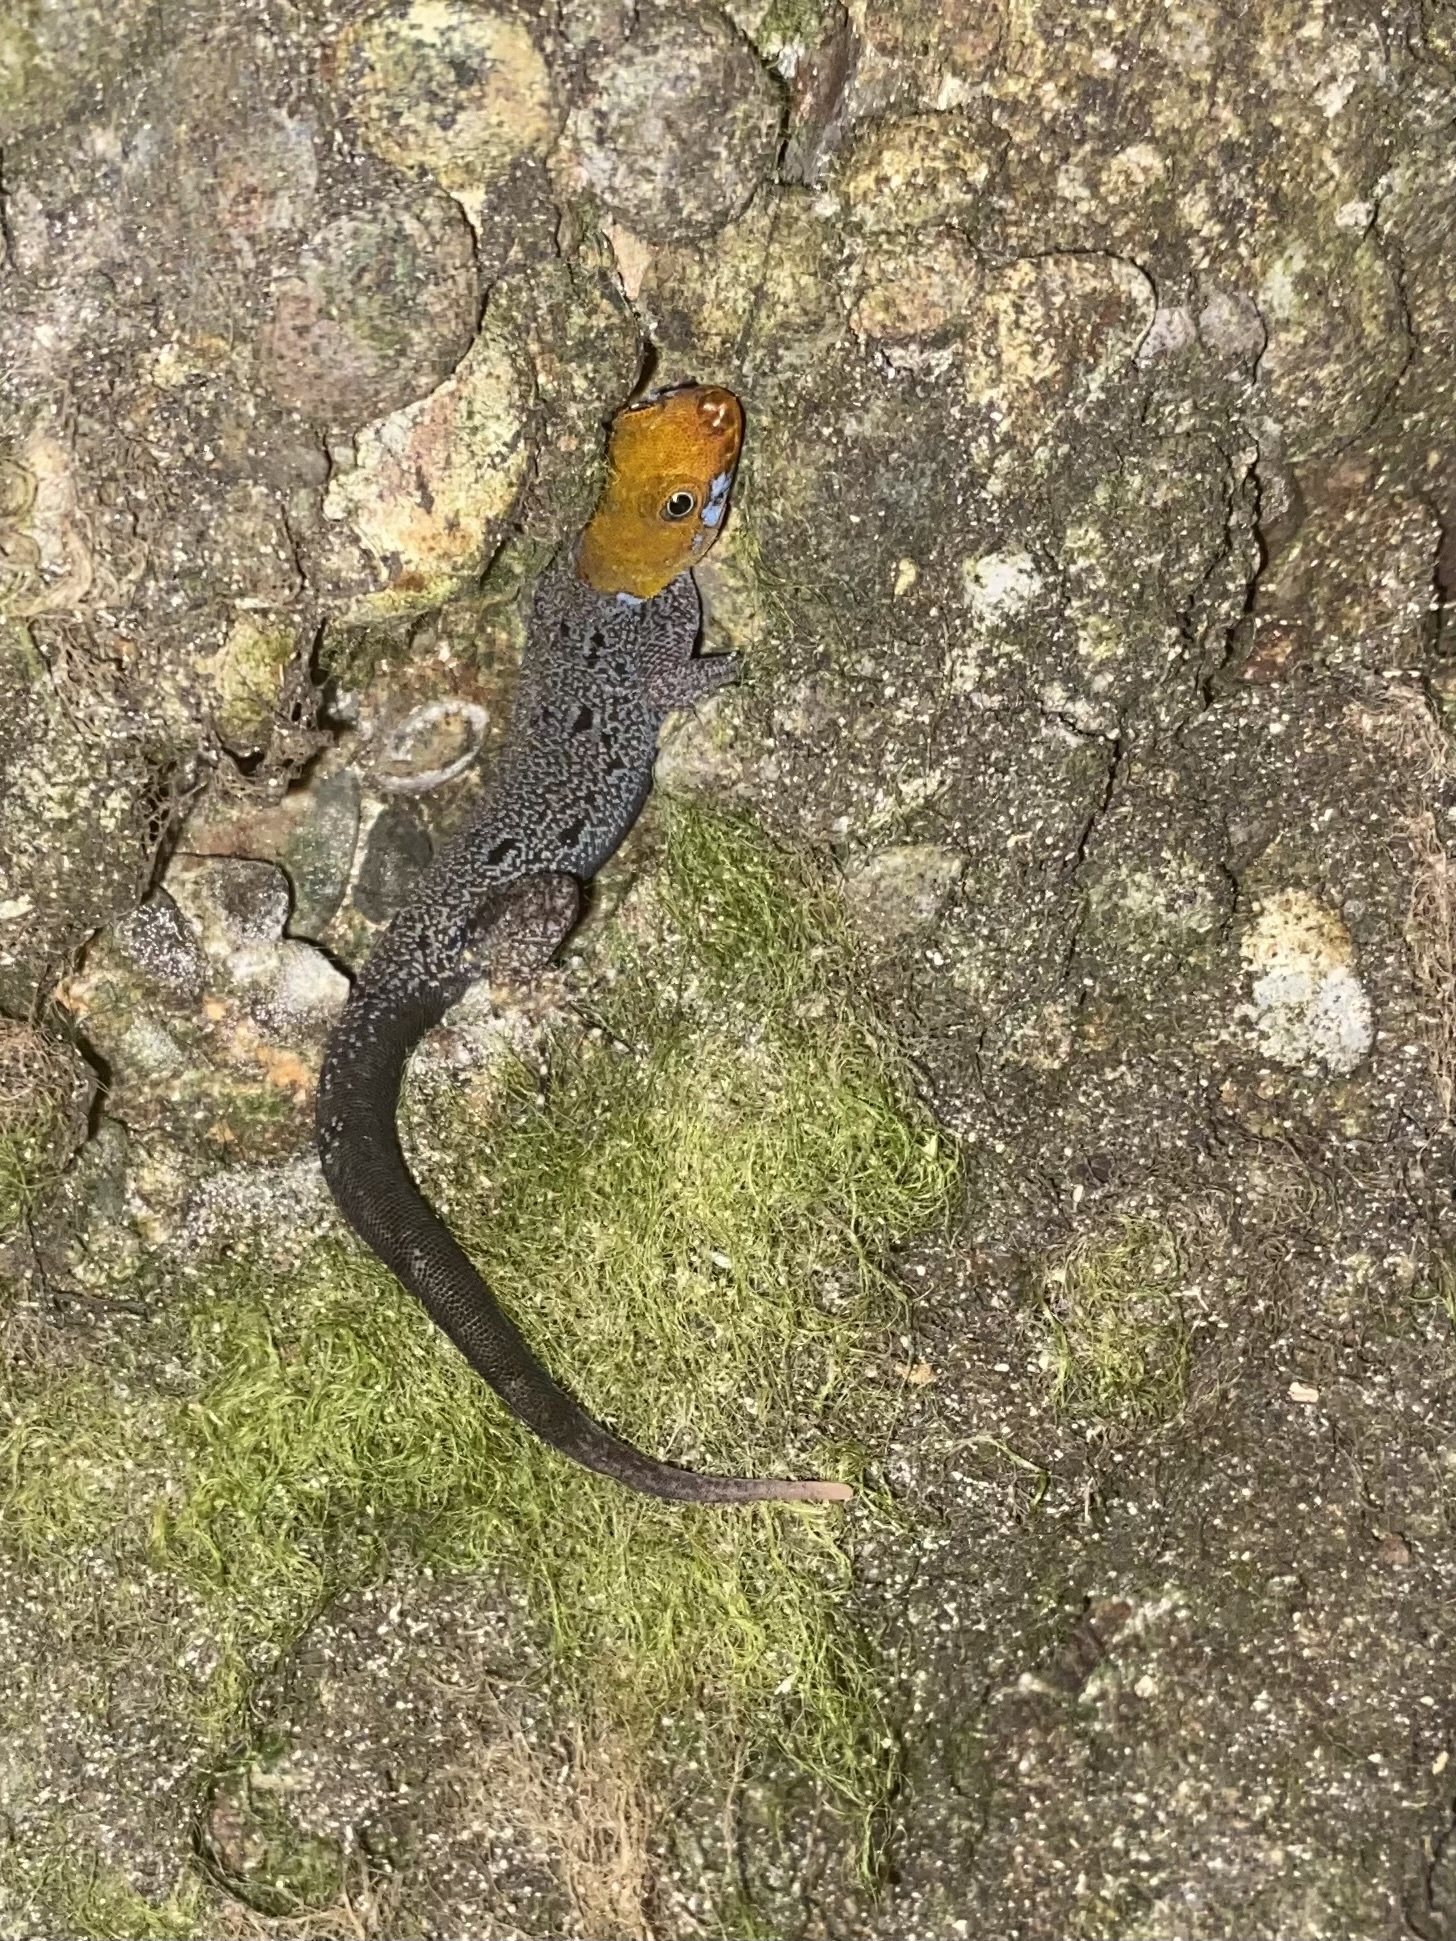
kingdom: Animalia
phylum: Chordata
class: Squamata
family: Sphaerodactylidae
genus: Gonatodes
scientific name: Gonatodes albogularis
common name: Yellow-headed gecko
